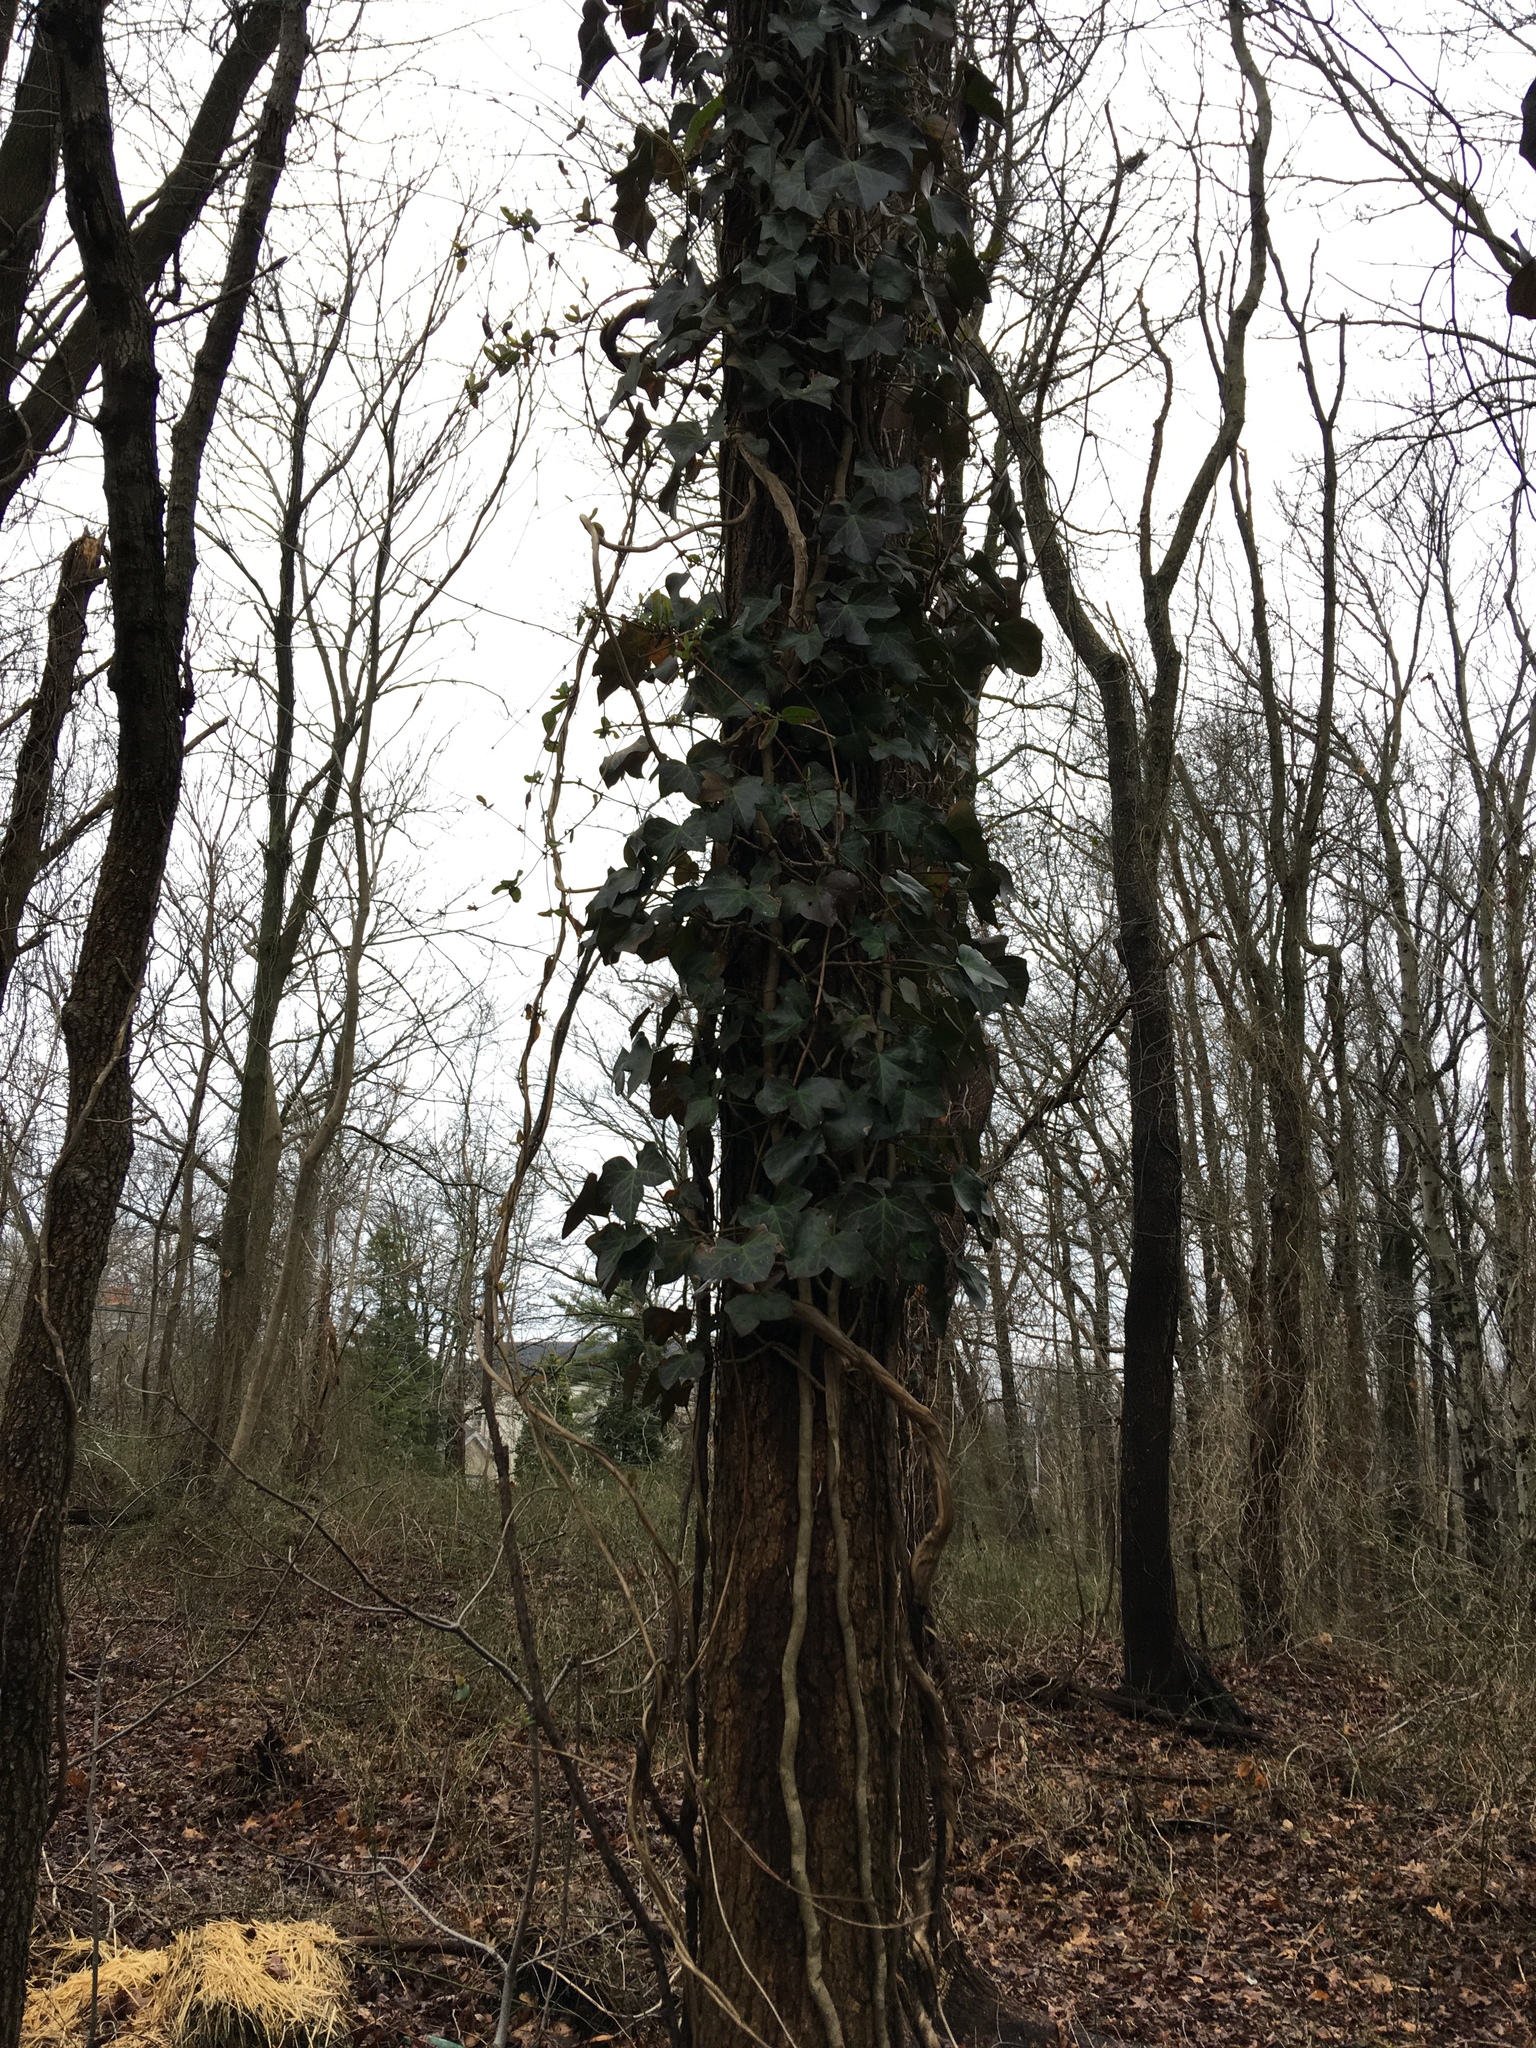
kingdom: Plantae
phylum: Tracheophyta
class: Magnoliopsida
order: Apiales
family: Araliaceae
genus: Hedera
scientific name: Hedera helix
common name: Ivy
